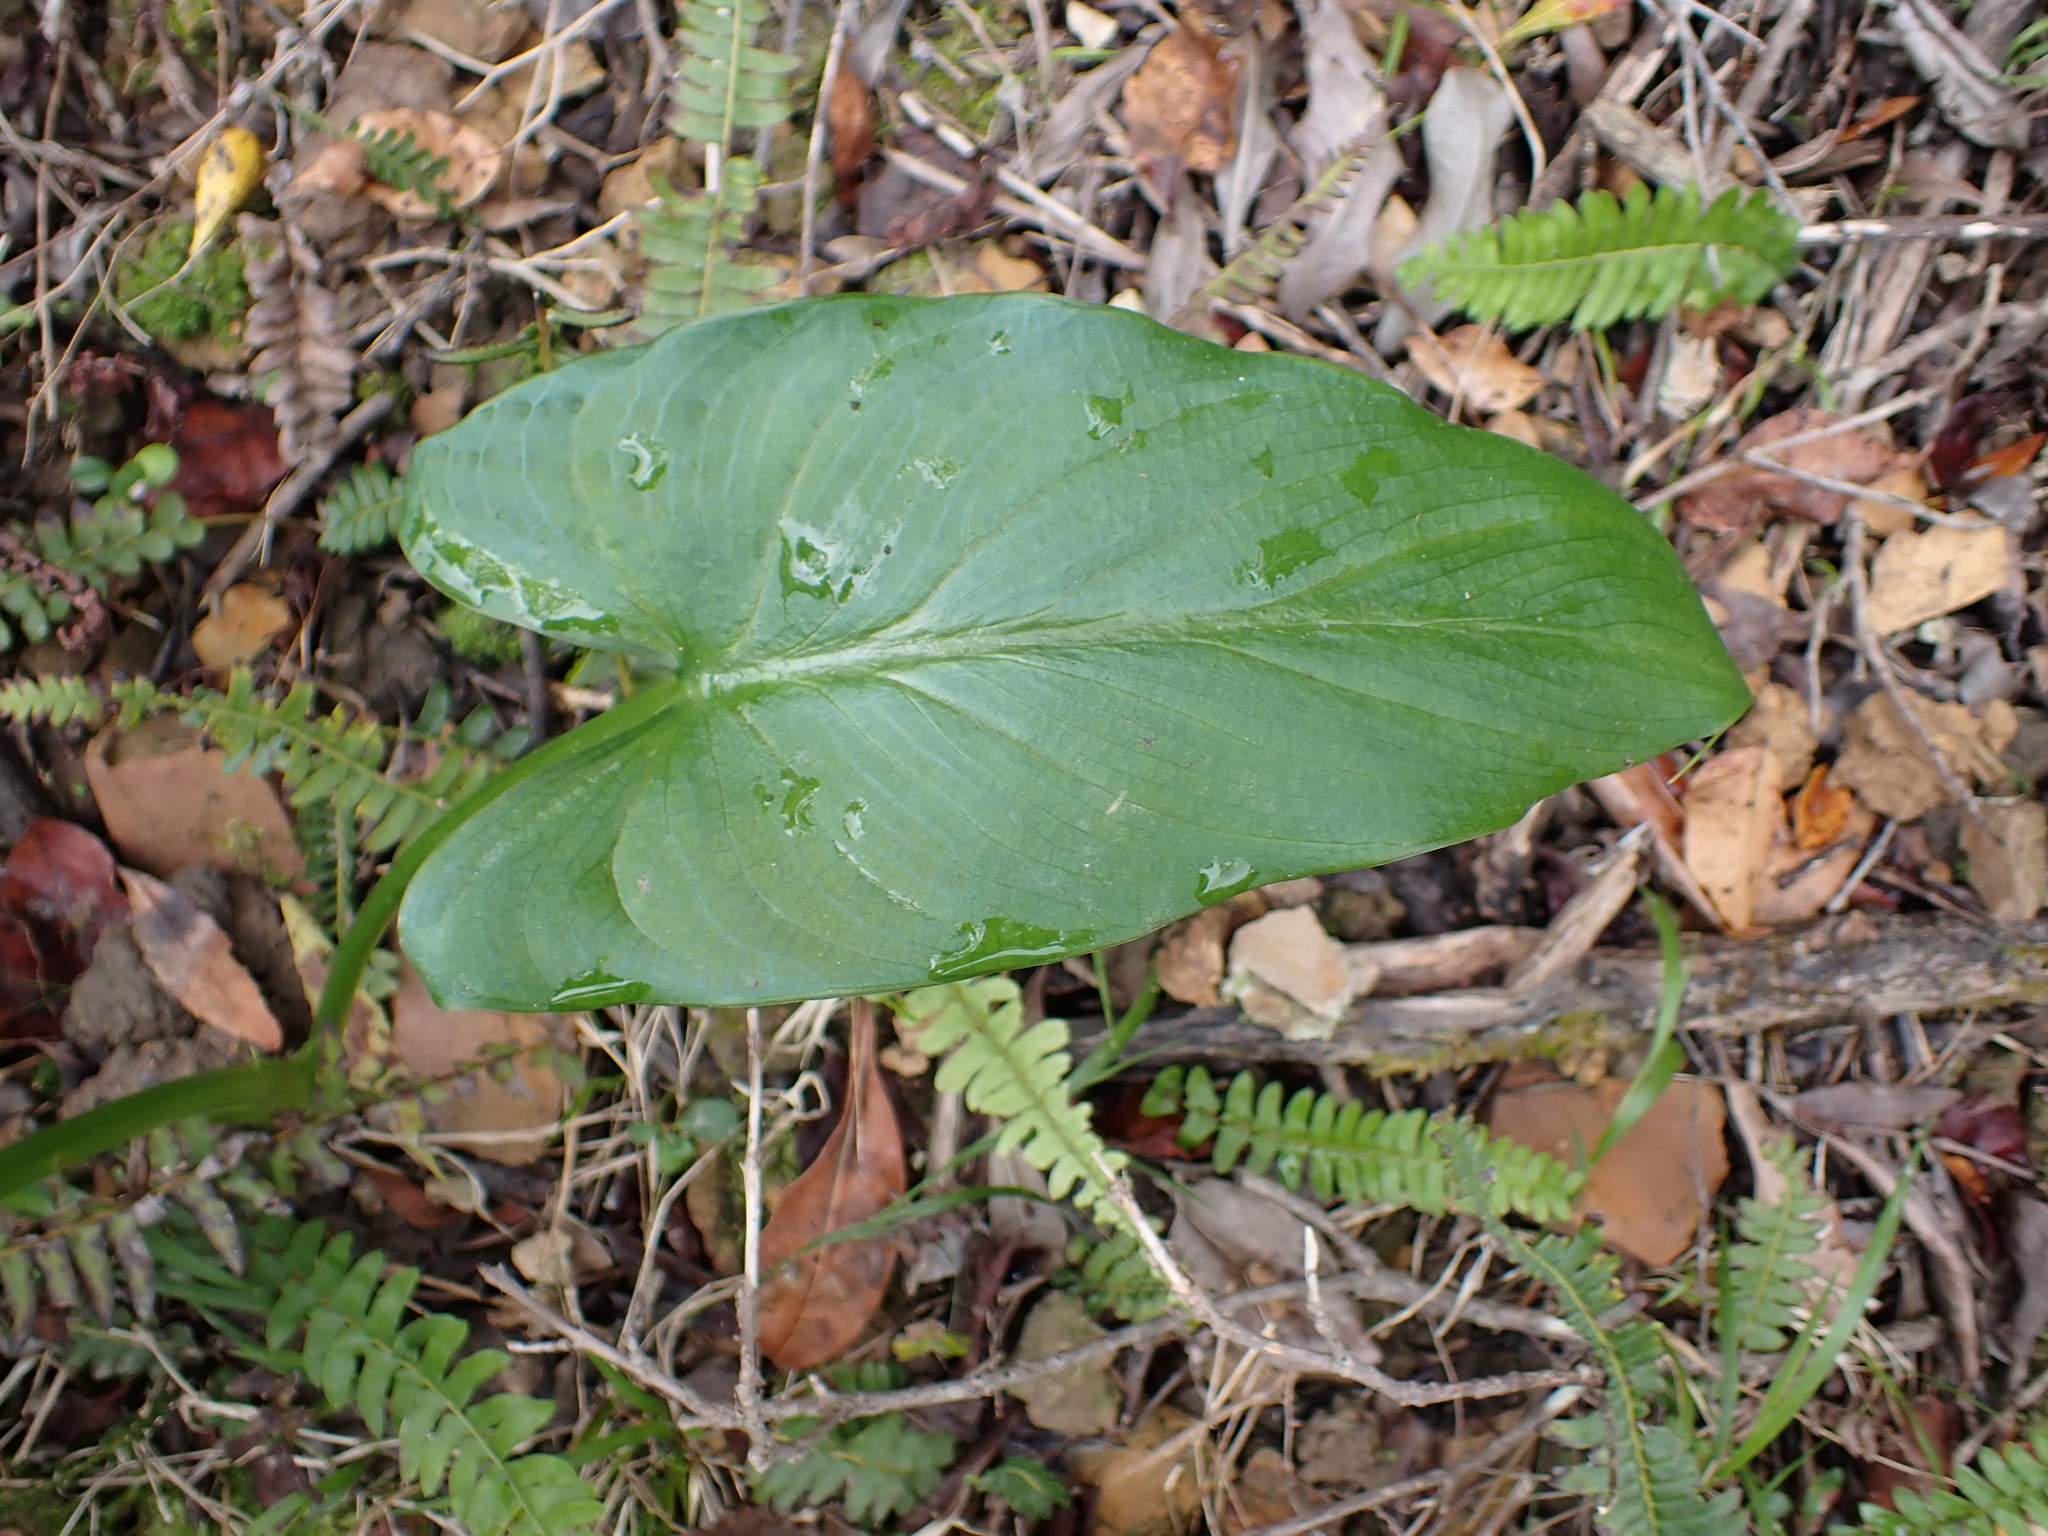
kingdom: Plantae
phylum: Tracheophyta
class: Liliopsida
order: Alismatales
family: Araceae
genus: Zantedeschia
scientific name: Zantedeschia aethiopica
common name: Altar-lily
